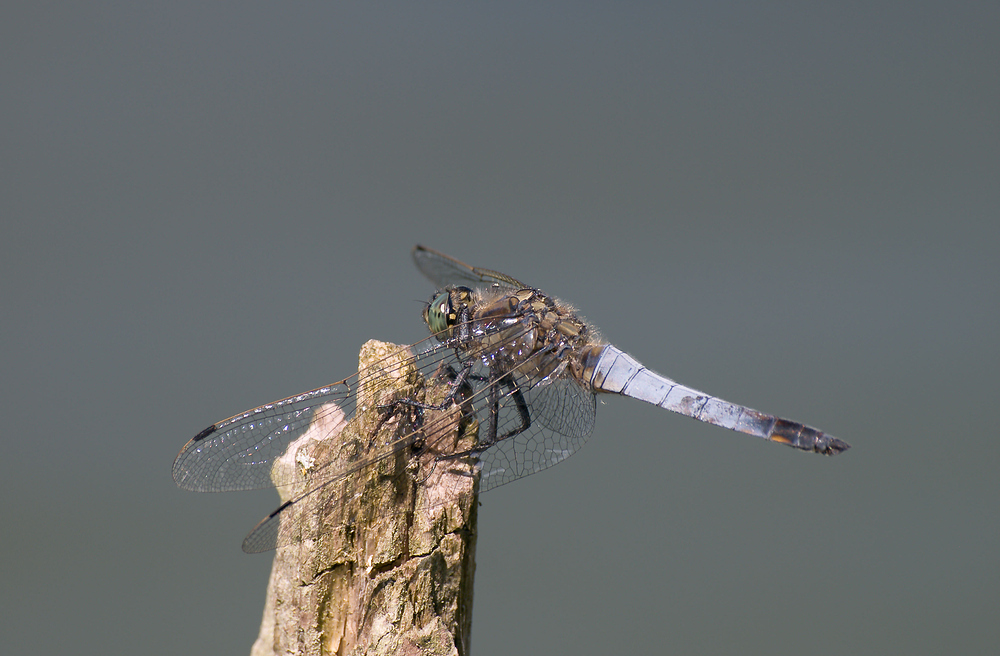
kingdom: Animalia
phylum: Arthropoda
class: Insecta
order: Odonata
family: Libellulidae
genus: Orthetrum
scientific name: Orthetrum cancellatum
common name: Black-tailed skimmer
